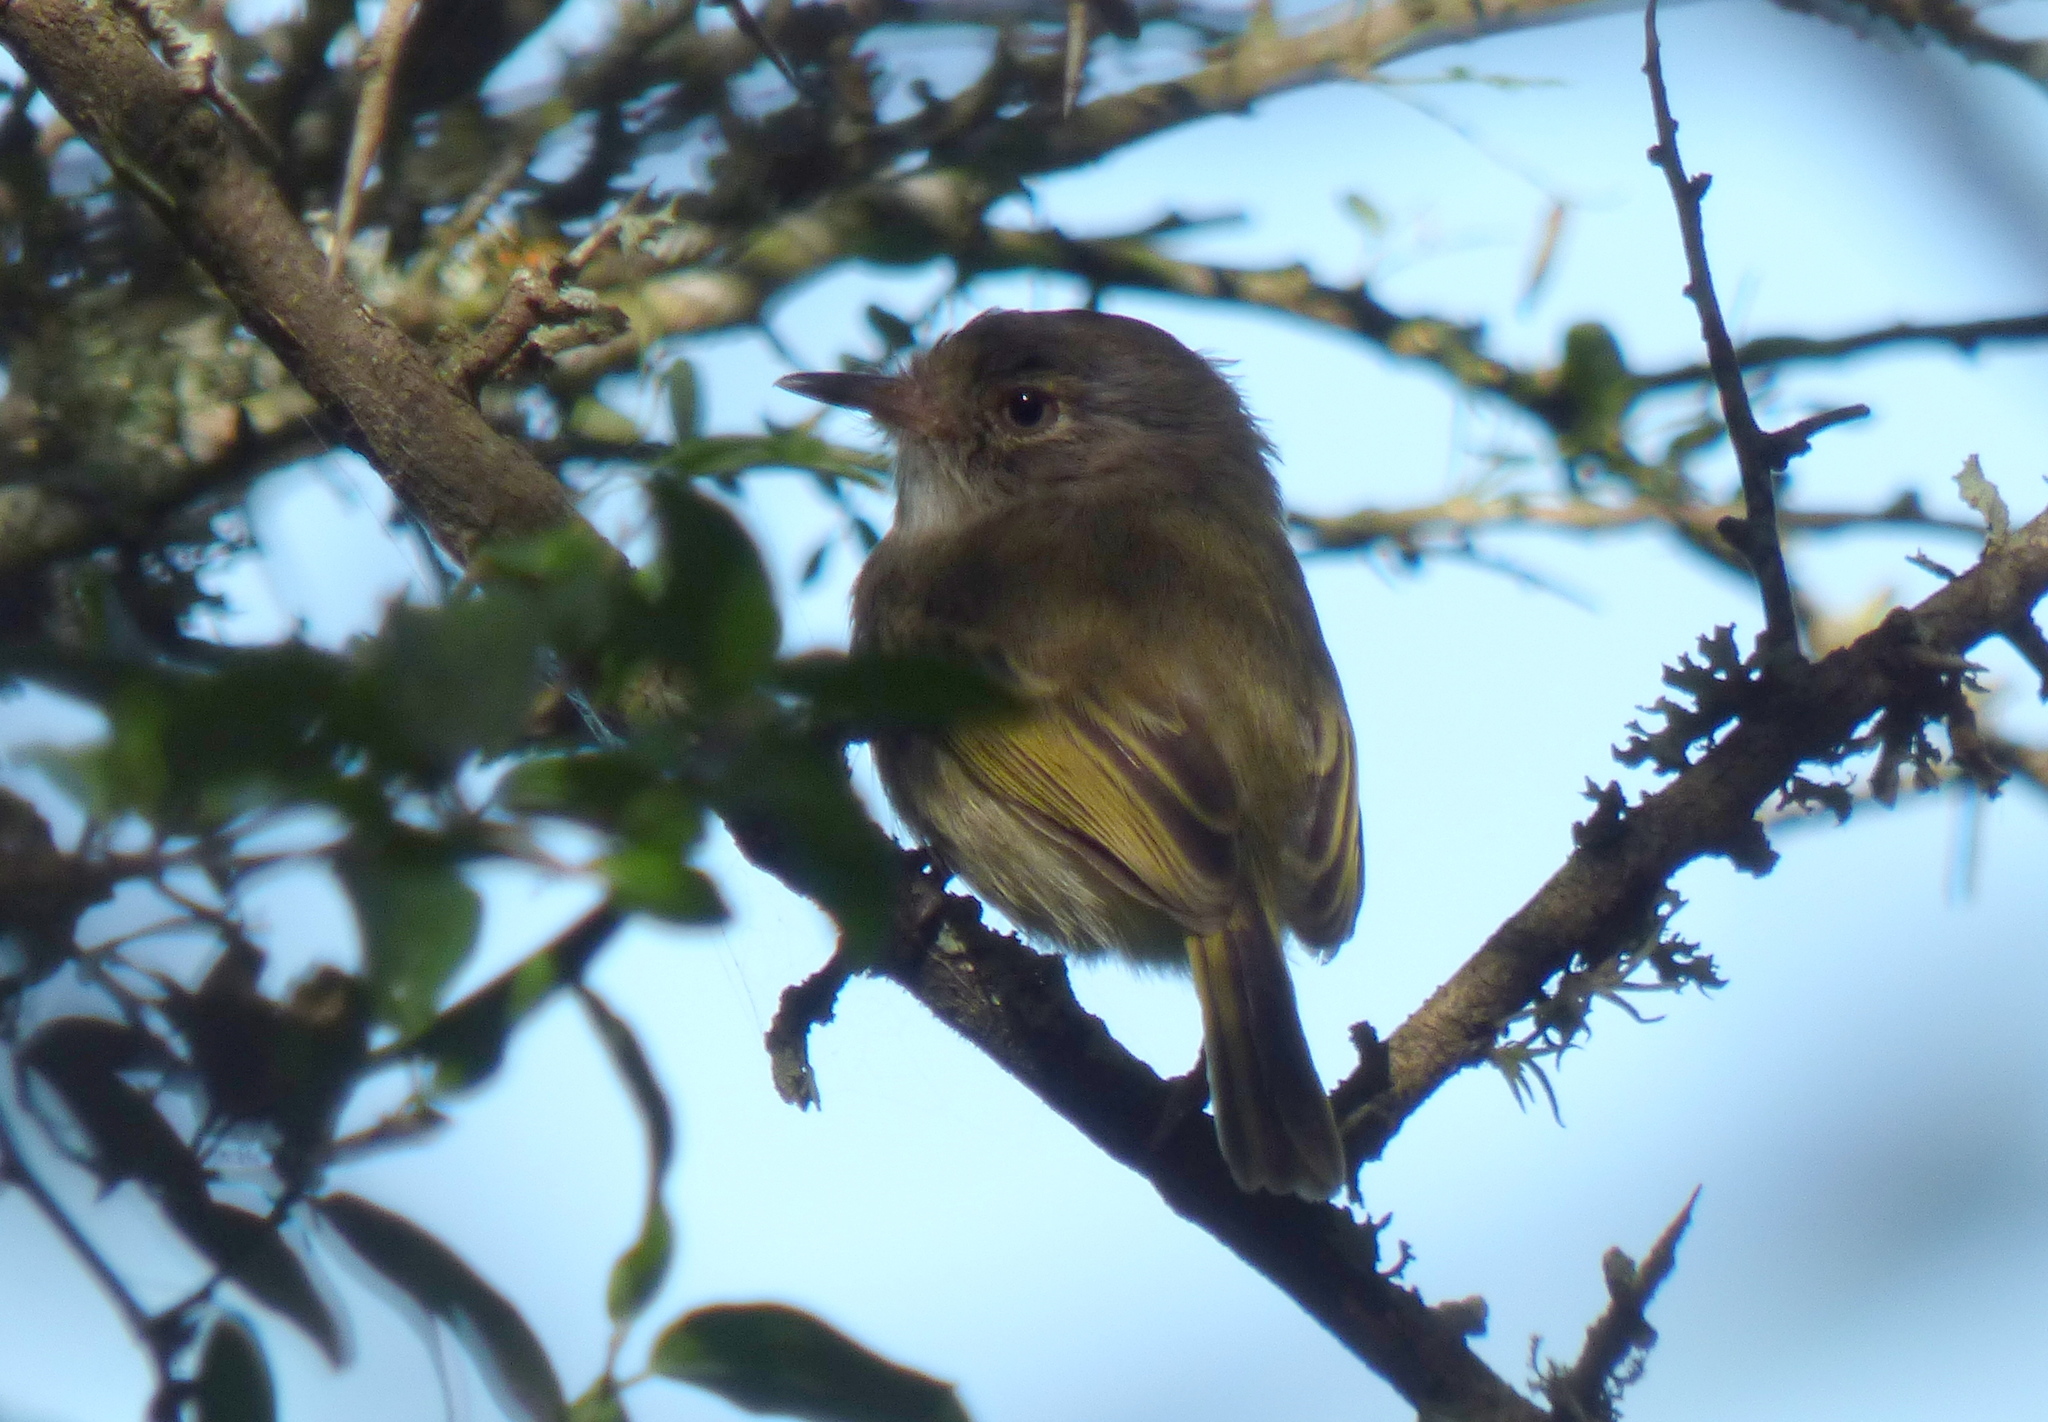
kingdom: Animalia
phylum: Chordata
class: Aves
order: Passeriformes
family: Tyrannidae
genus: Hemitriccus
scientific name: Hemitriccus margaritaceiventer
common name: Pearly-vented tody-tyrant
